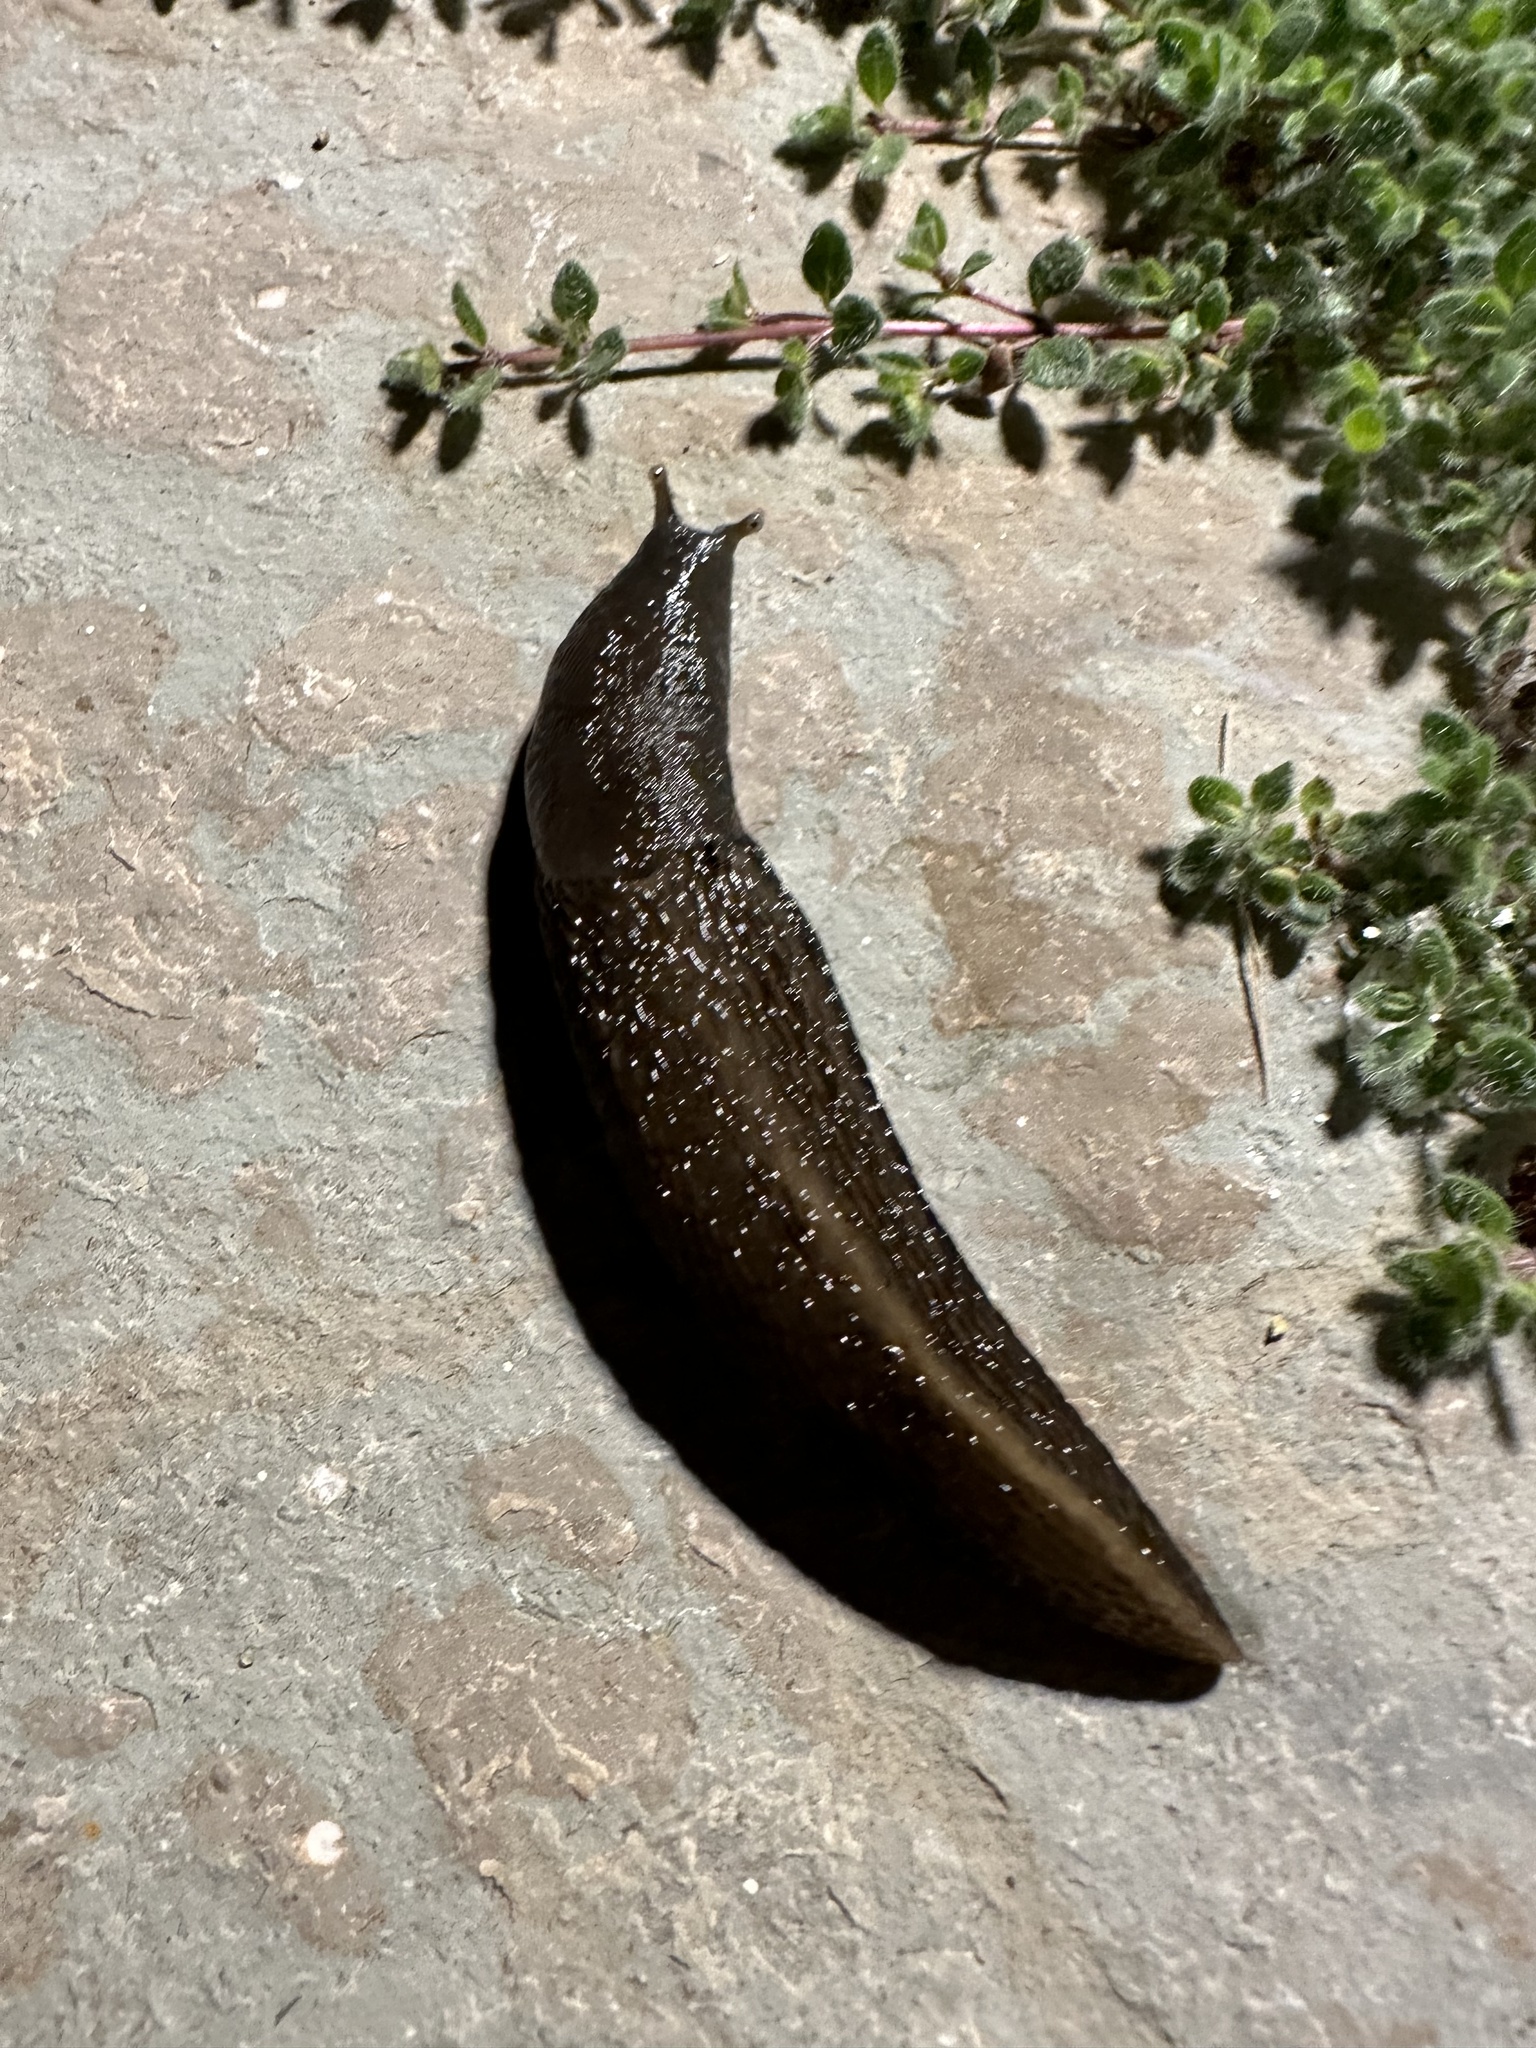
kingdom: Animalia
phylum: Mollusca
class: Gastropoda
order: Stylommatophora
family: Limacidae
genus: Limax
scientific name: Limax cinereoniger
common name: Ash-black slug
